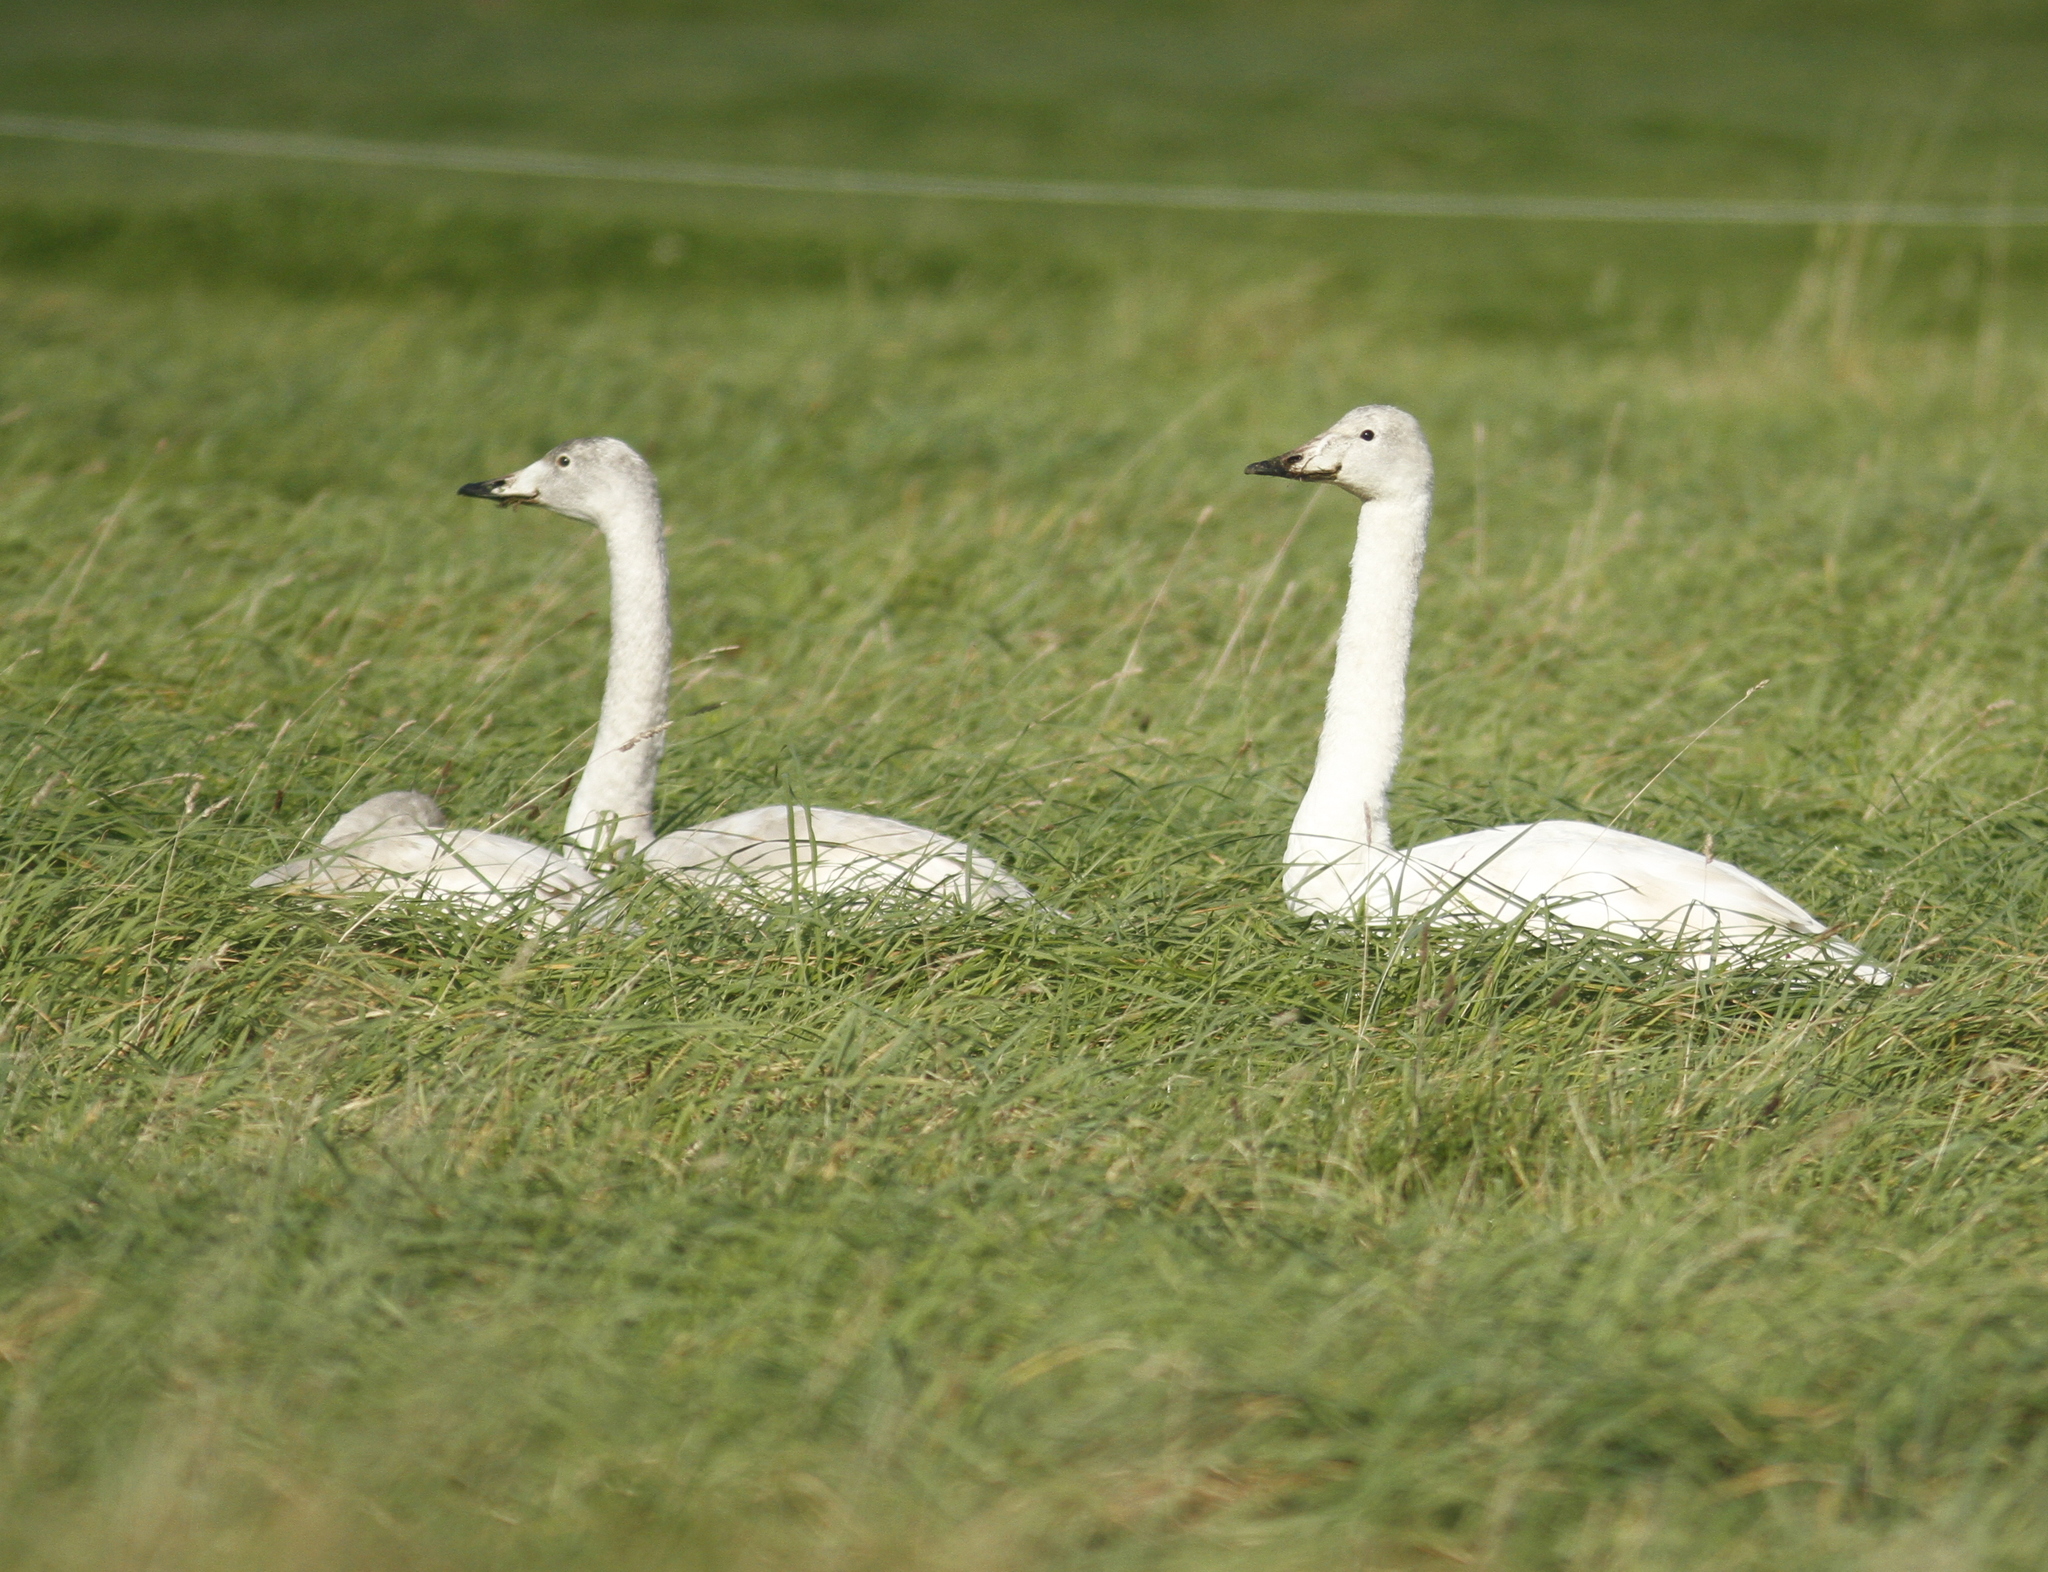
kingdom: Animalia
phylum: Chordata
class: Aves
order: Anseriformes
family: Anatidae
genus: Cygnus
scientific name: Cygnus cygnus
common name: Whooper swan
